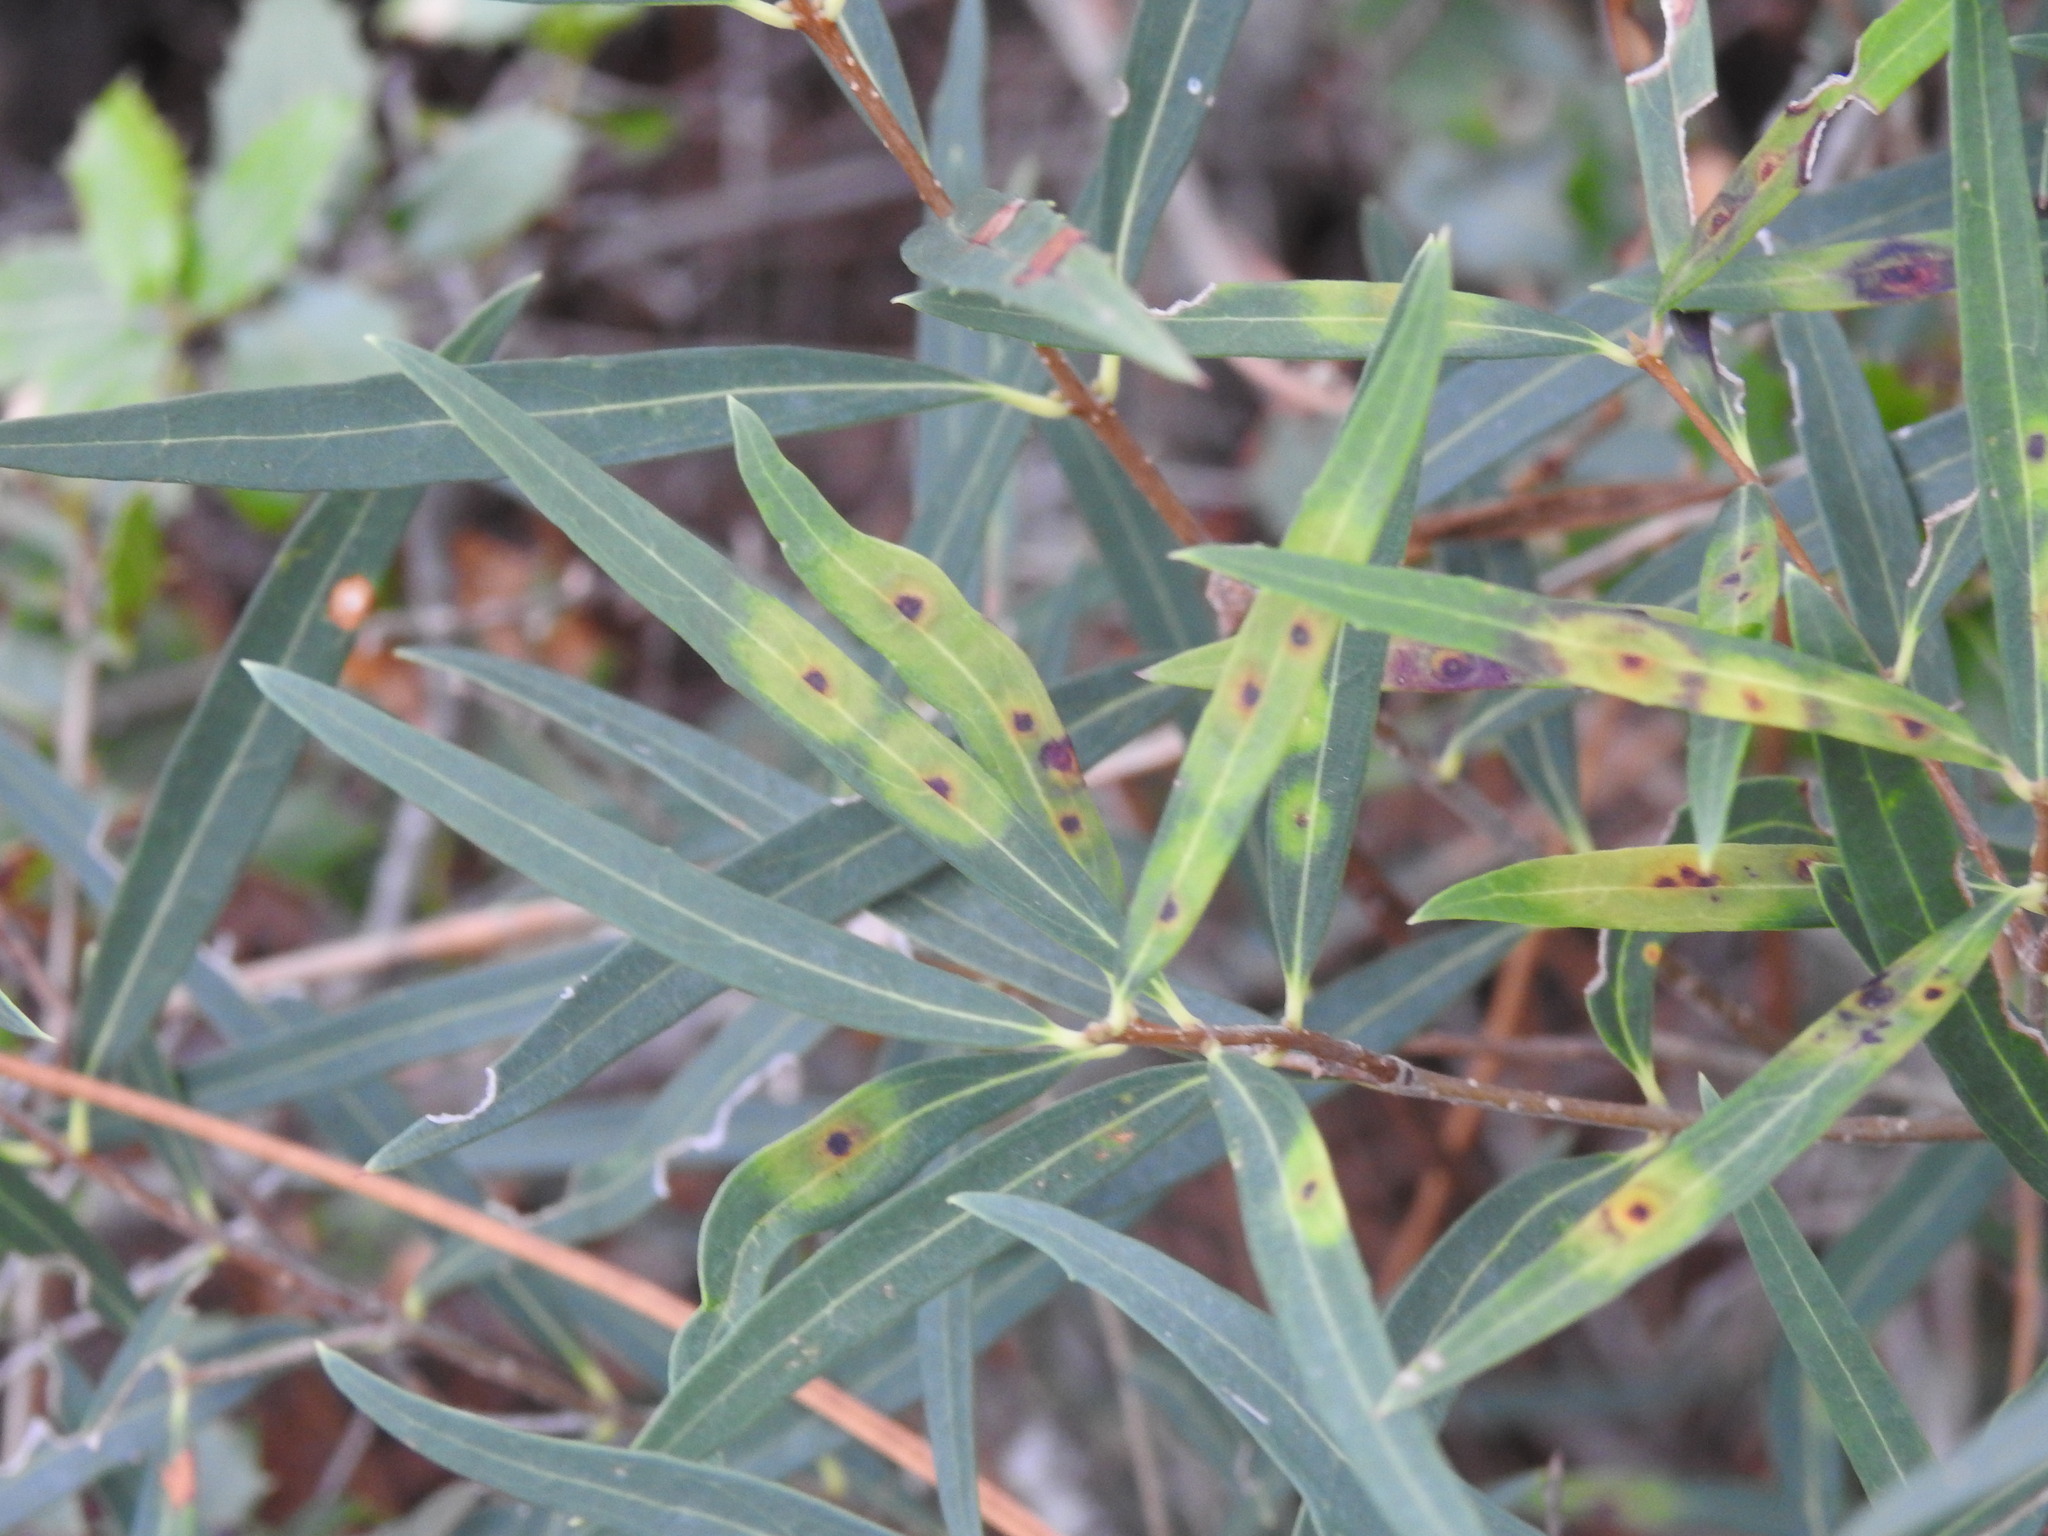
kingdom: Plantae
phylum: Tracheophyta
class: Magnoliopsida
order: Lamiales
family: Oleaceae
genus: Phillyrea
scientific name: Phillyrea angustifolia
